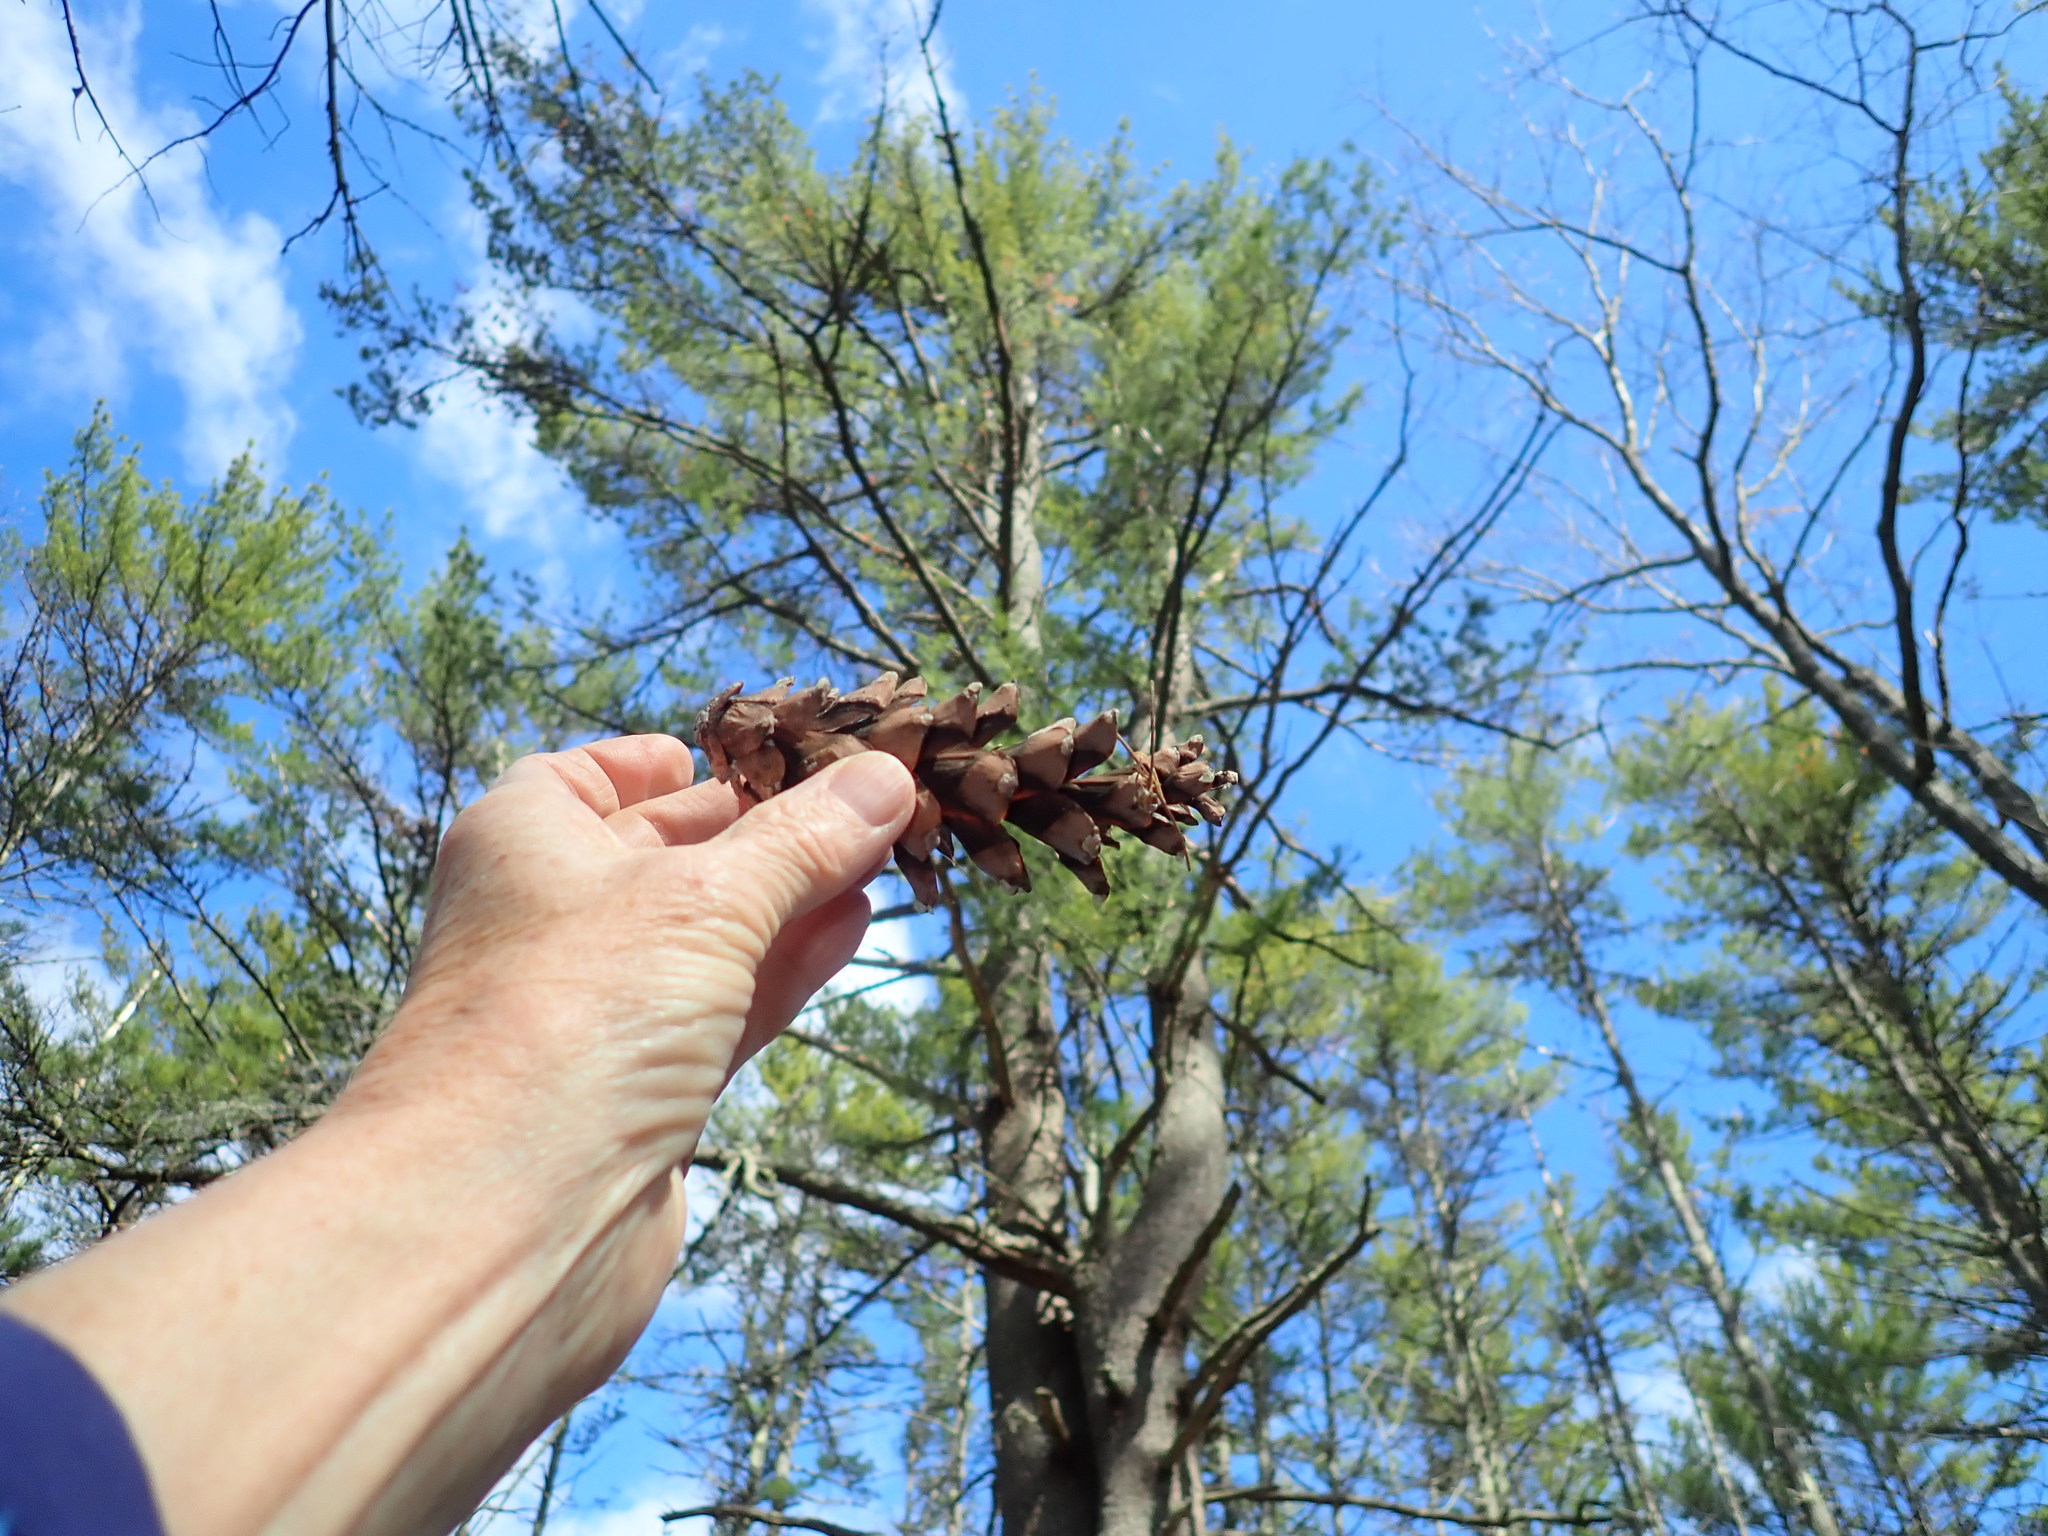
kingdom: Plantae
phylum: Tracheophyta
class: Pinopsida
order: Pinales
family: Pinaceae
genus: Pinus
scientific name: Pinus strobus
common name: Weymouth pine
